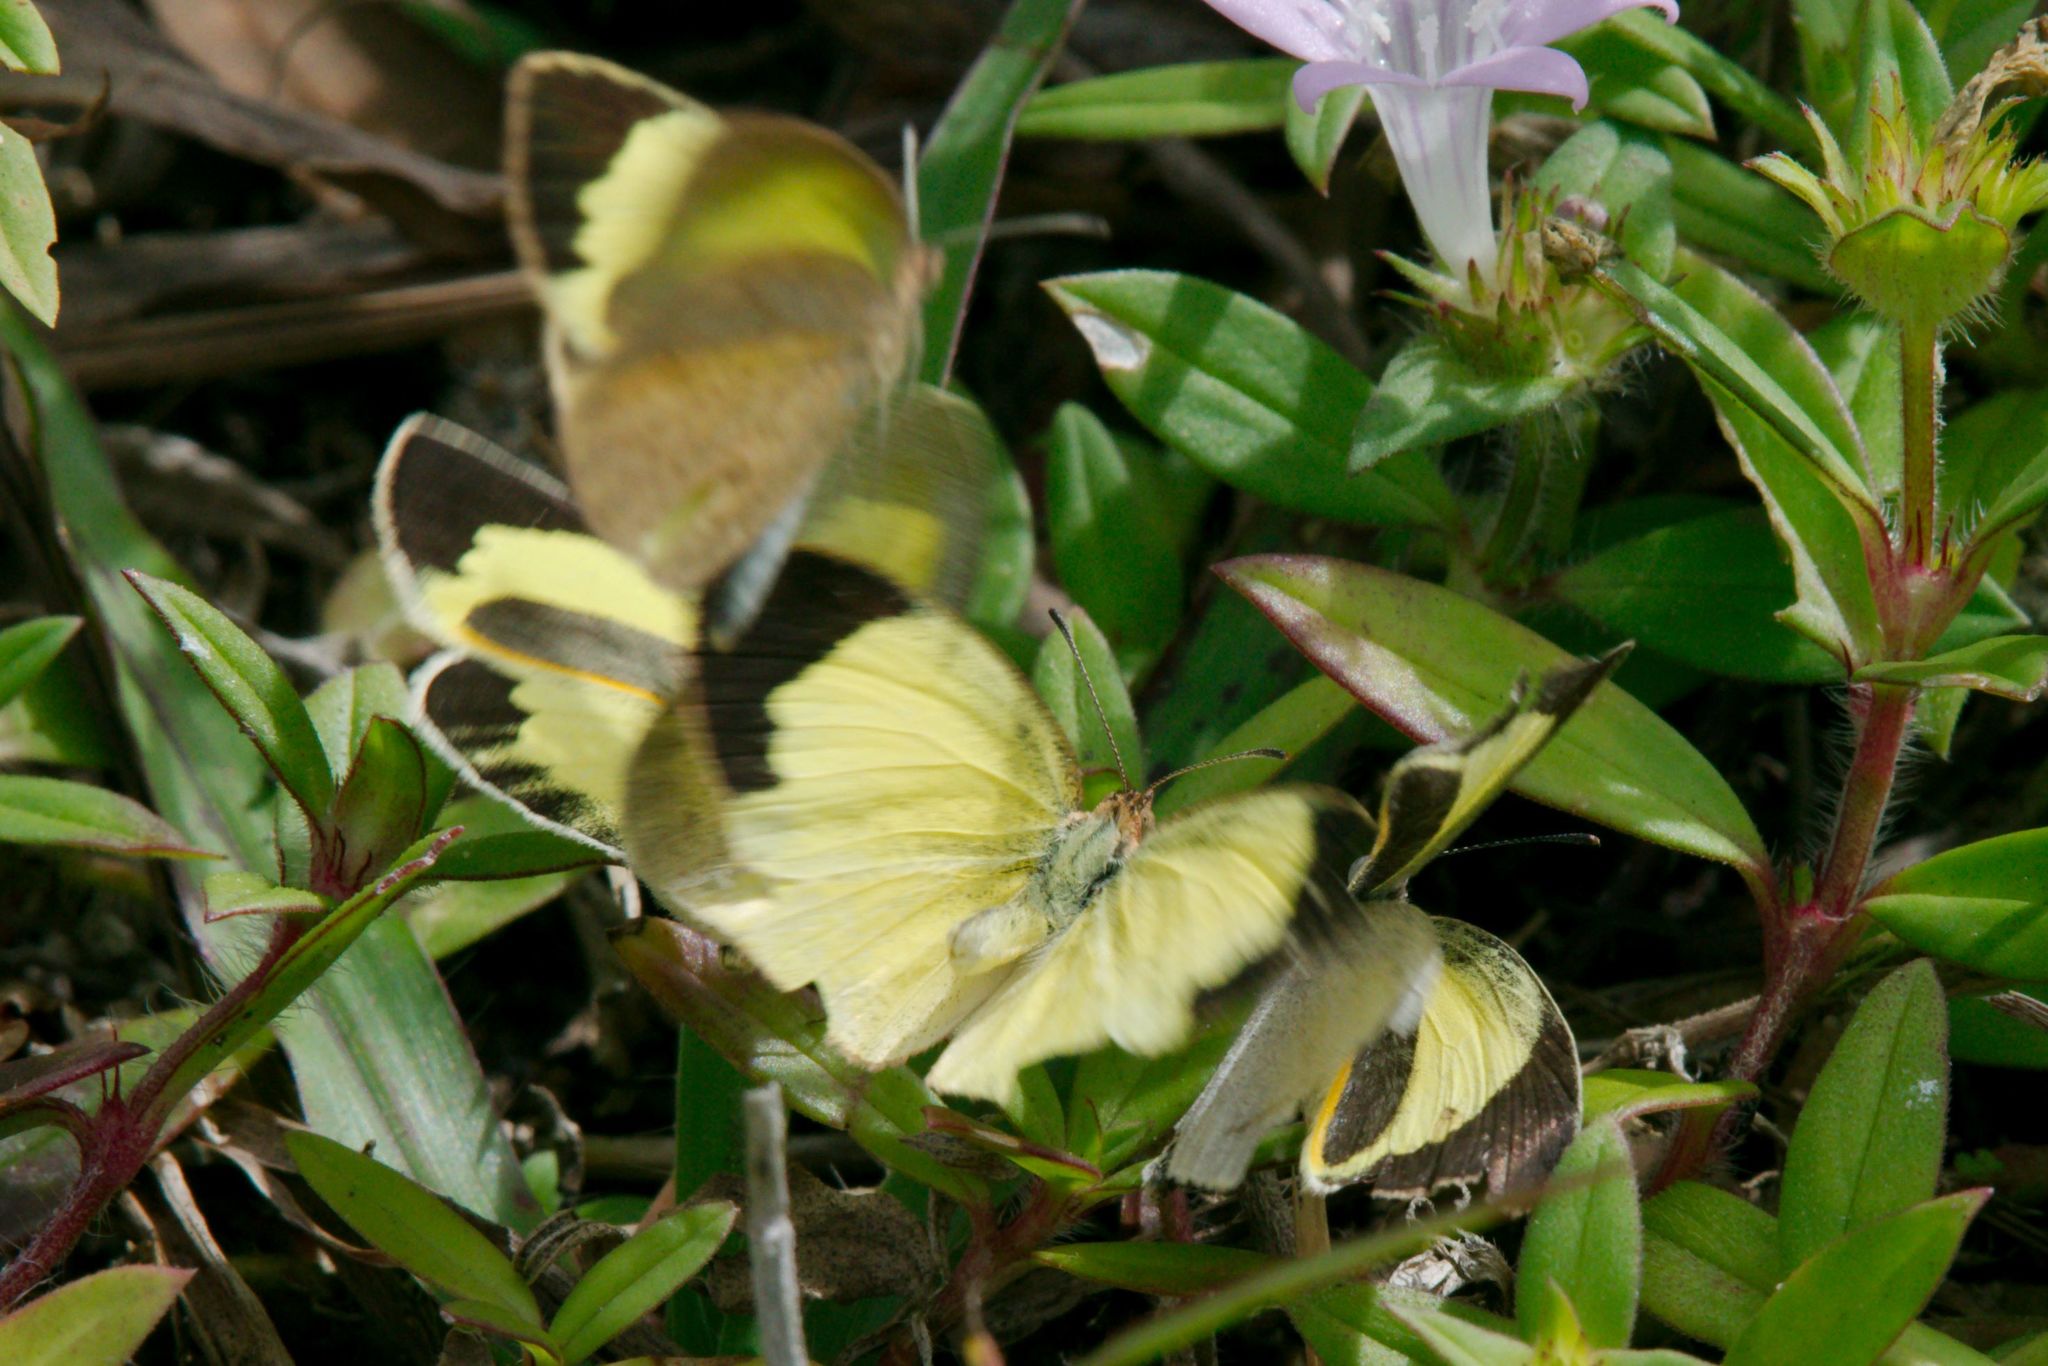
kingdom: Animalia
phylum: Arthropoda
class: Insecta
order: Lepidoptera
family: Pieridae
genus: Eurema
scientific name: Eurema daira
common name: Barred sulphur
